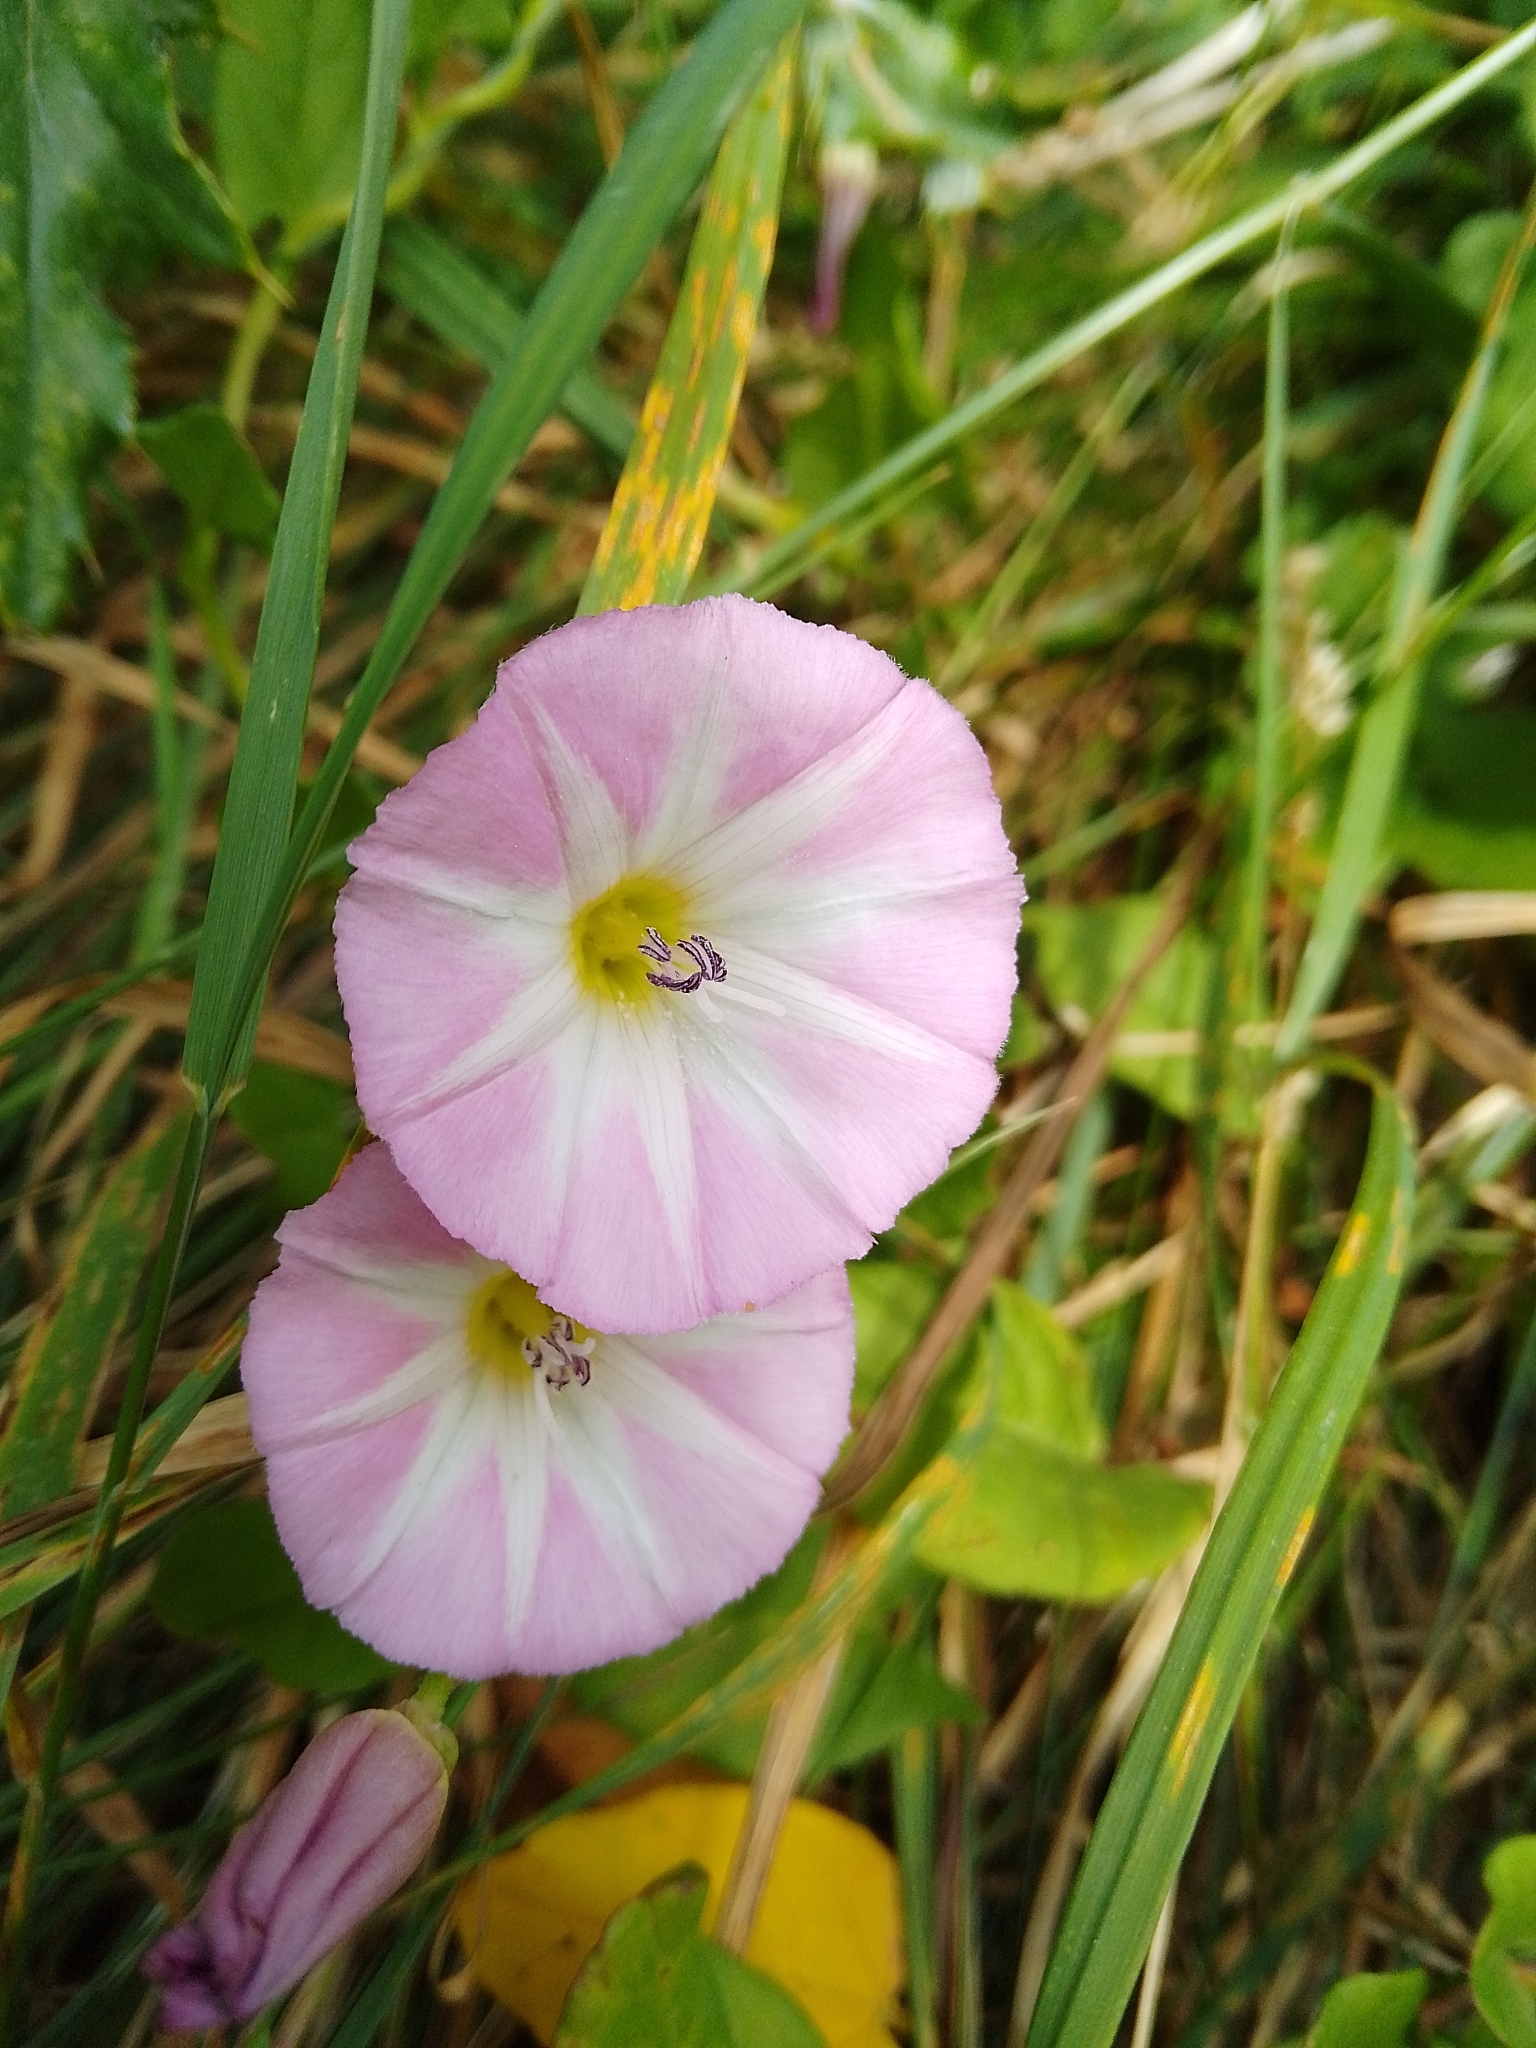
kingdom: Plantae
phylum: Tracheophyta
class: Magnoliopsida
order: Solanales
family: Convolvulaceae
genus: Convolvulus
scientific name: Convolvulus arvensis
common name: Field bindweed
